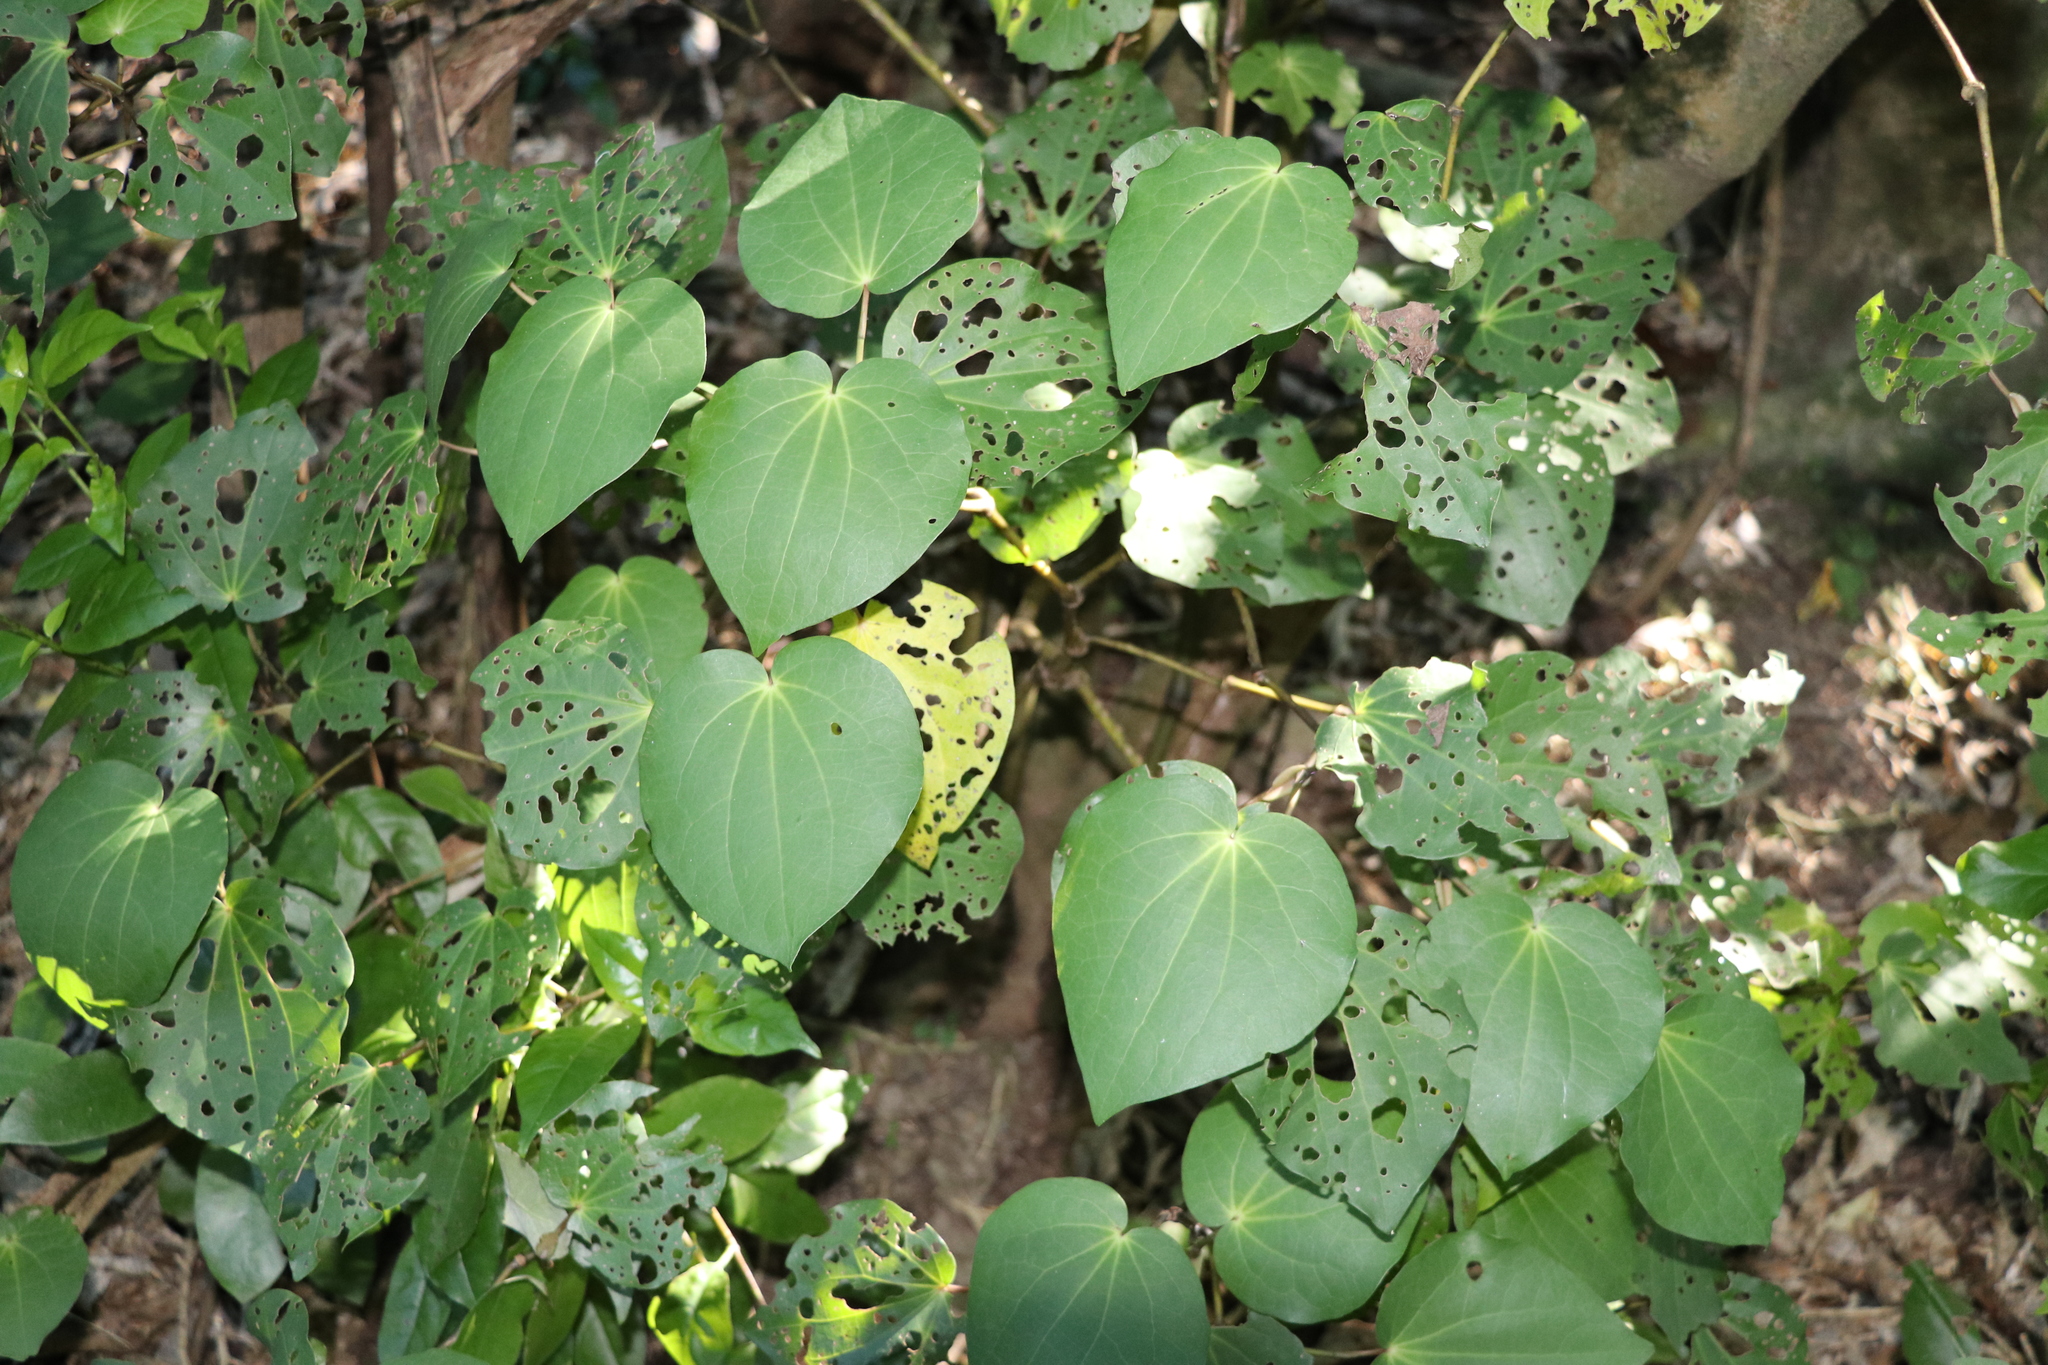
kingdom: Plantae
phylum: Tracheophyta
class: Magnoliopsida
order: Piperales
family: Piperaceae
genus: Macropiper
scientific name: Macropiper excelsum
